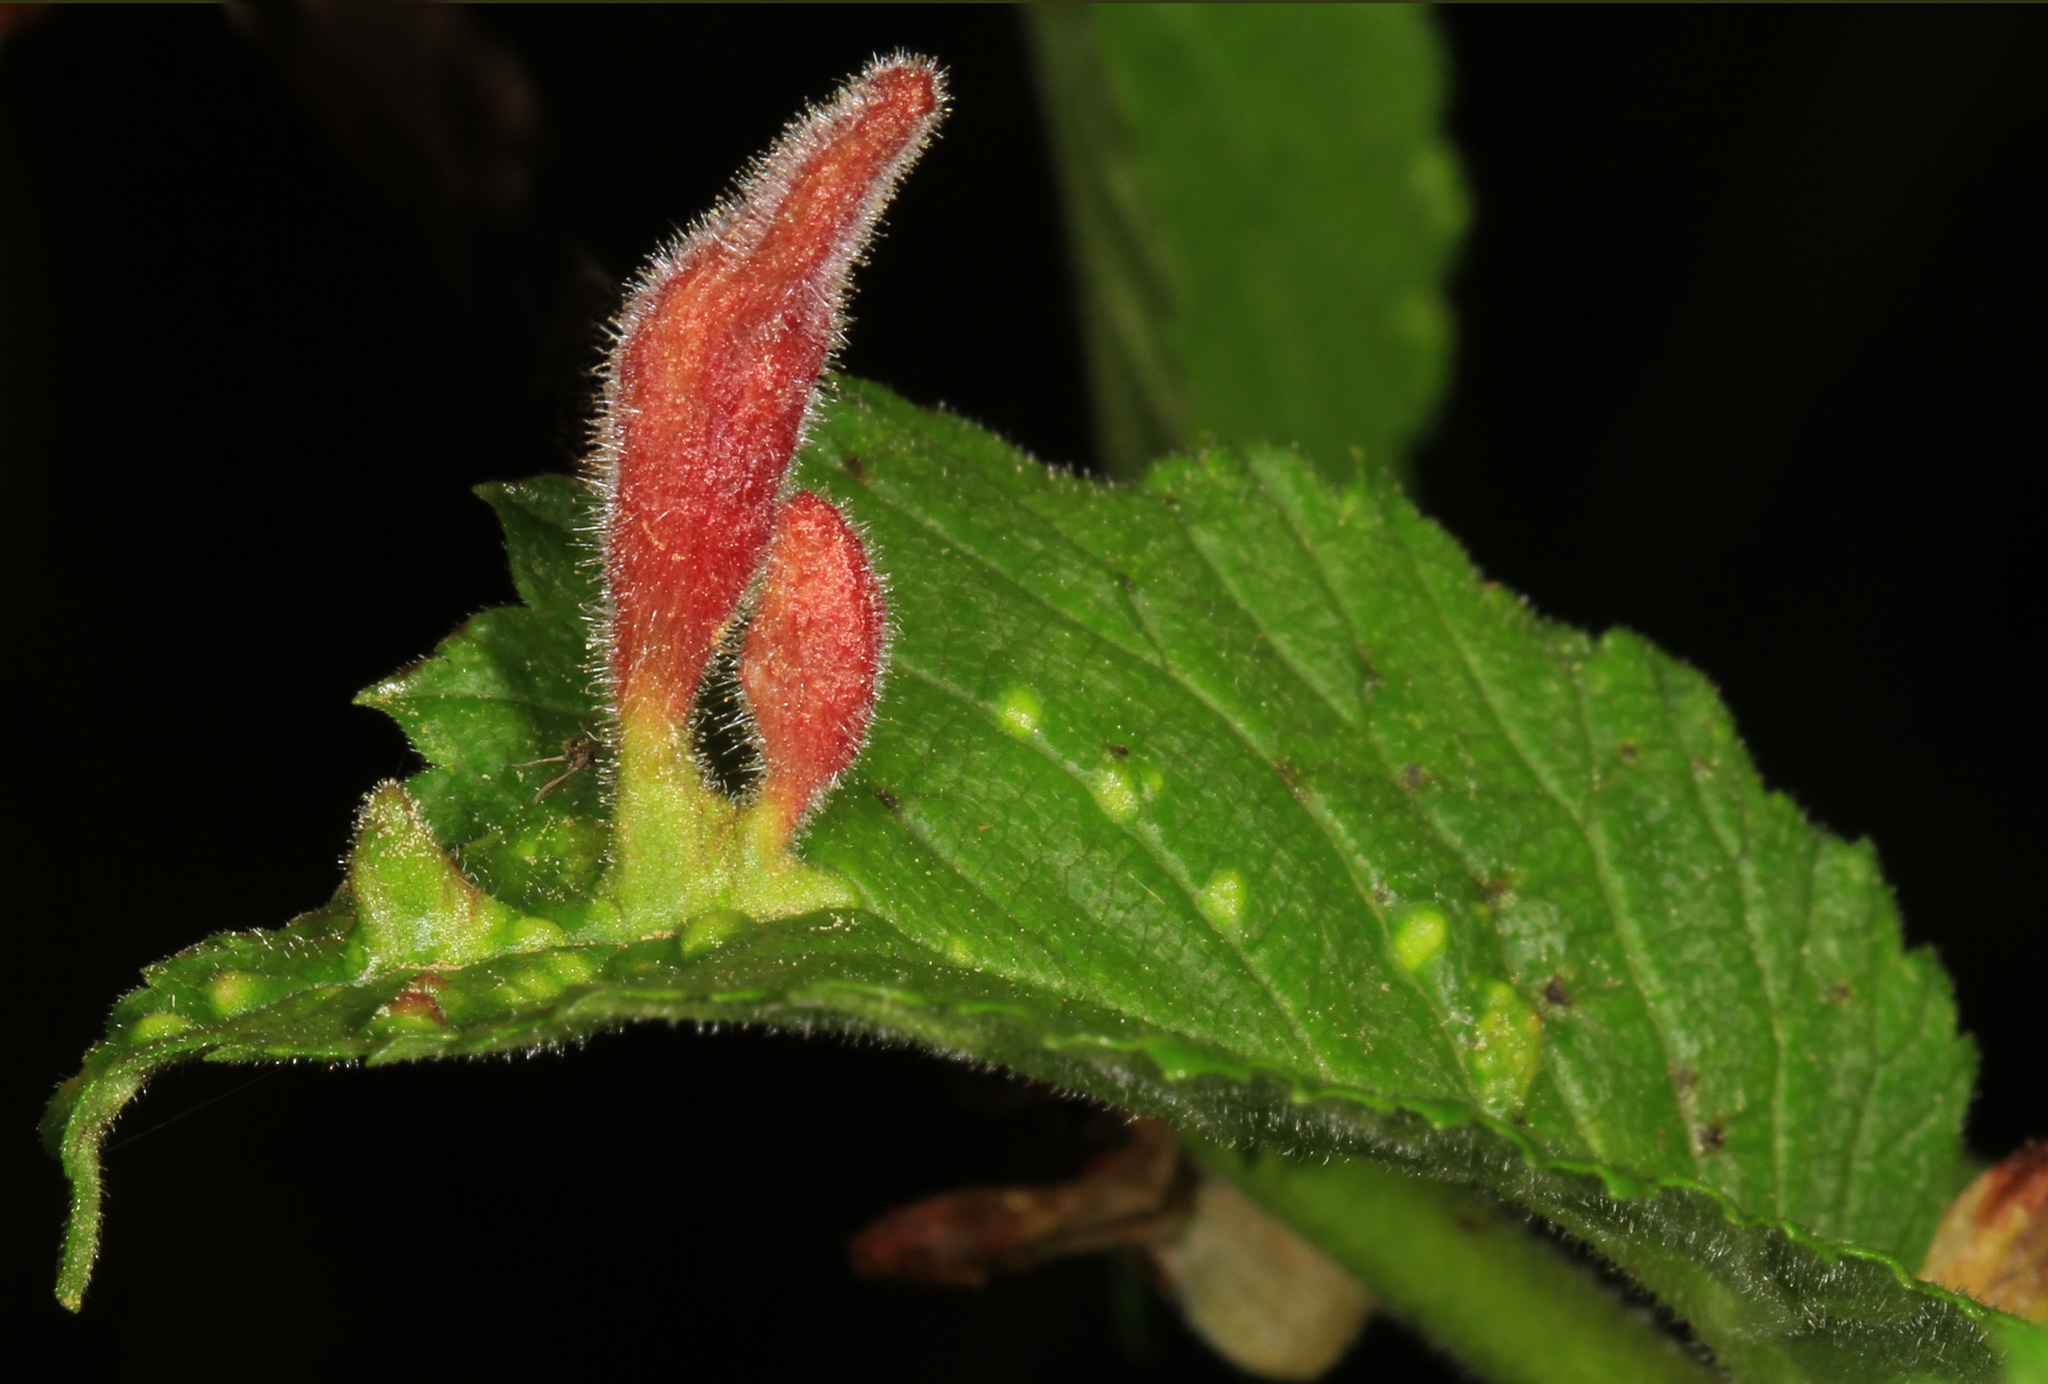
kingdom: Animalia
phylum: Arthropoda
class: Insecta
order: Hemiptera
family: Aphididae
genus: Tetraneura
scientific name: Tetraneura nigriabdominalis
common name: Aphid
